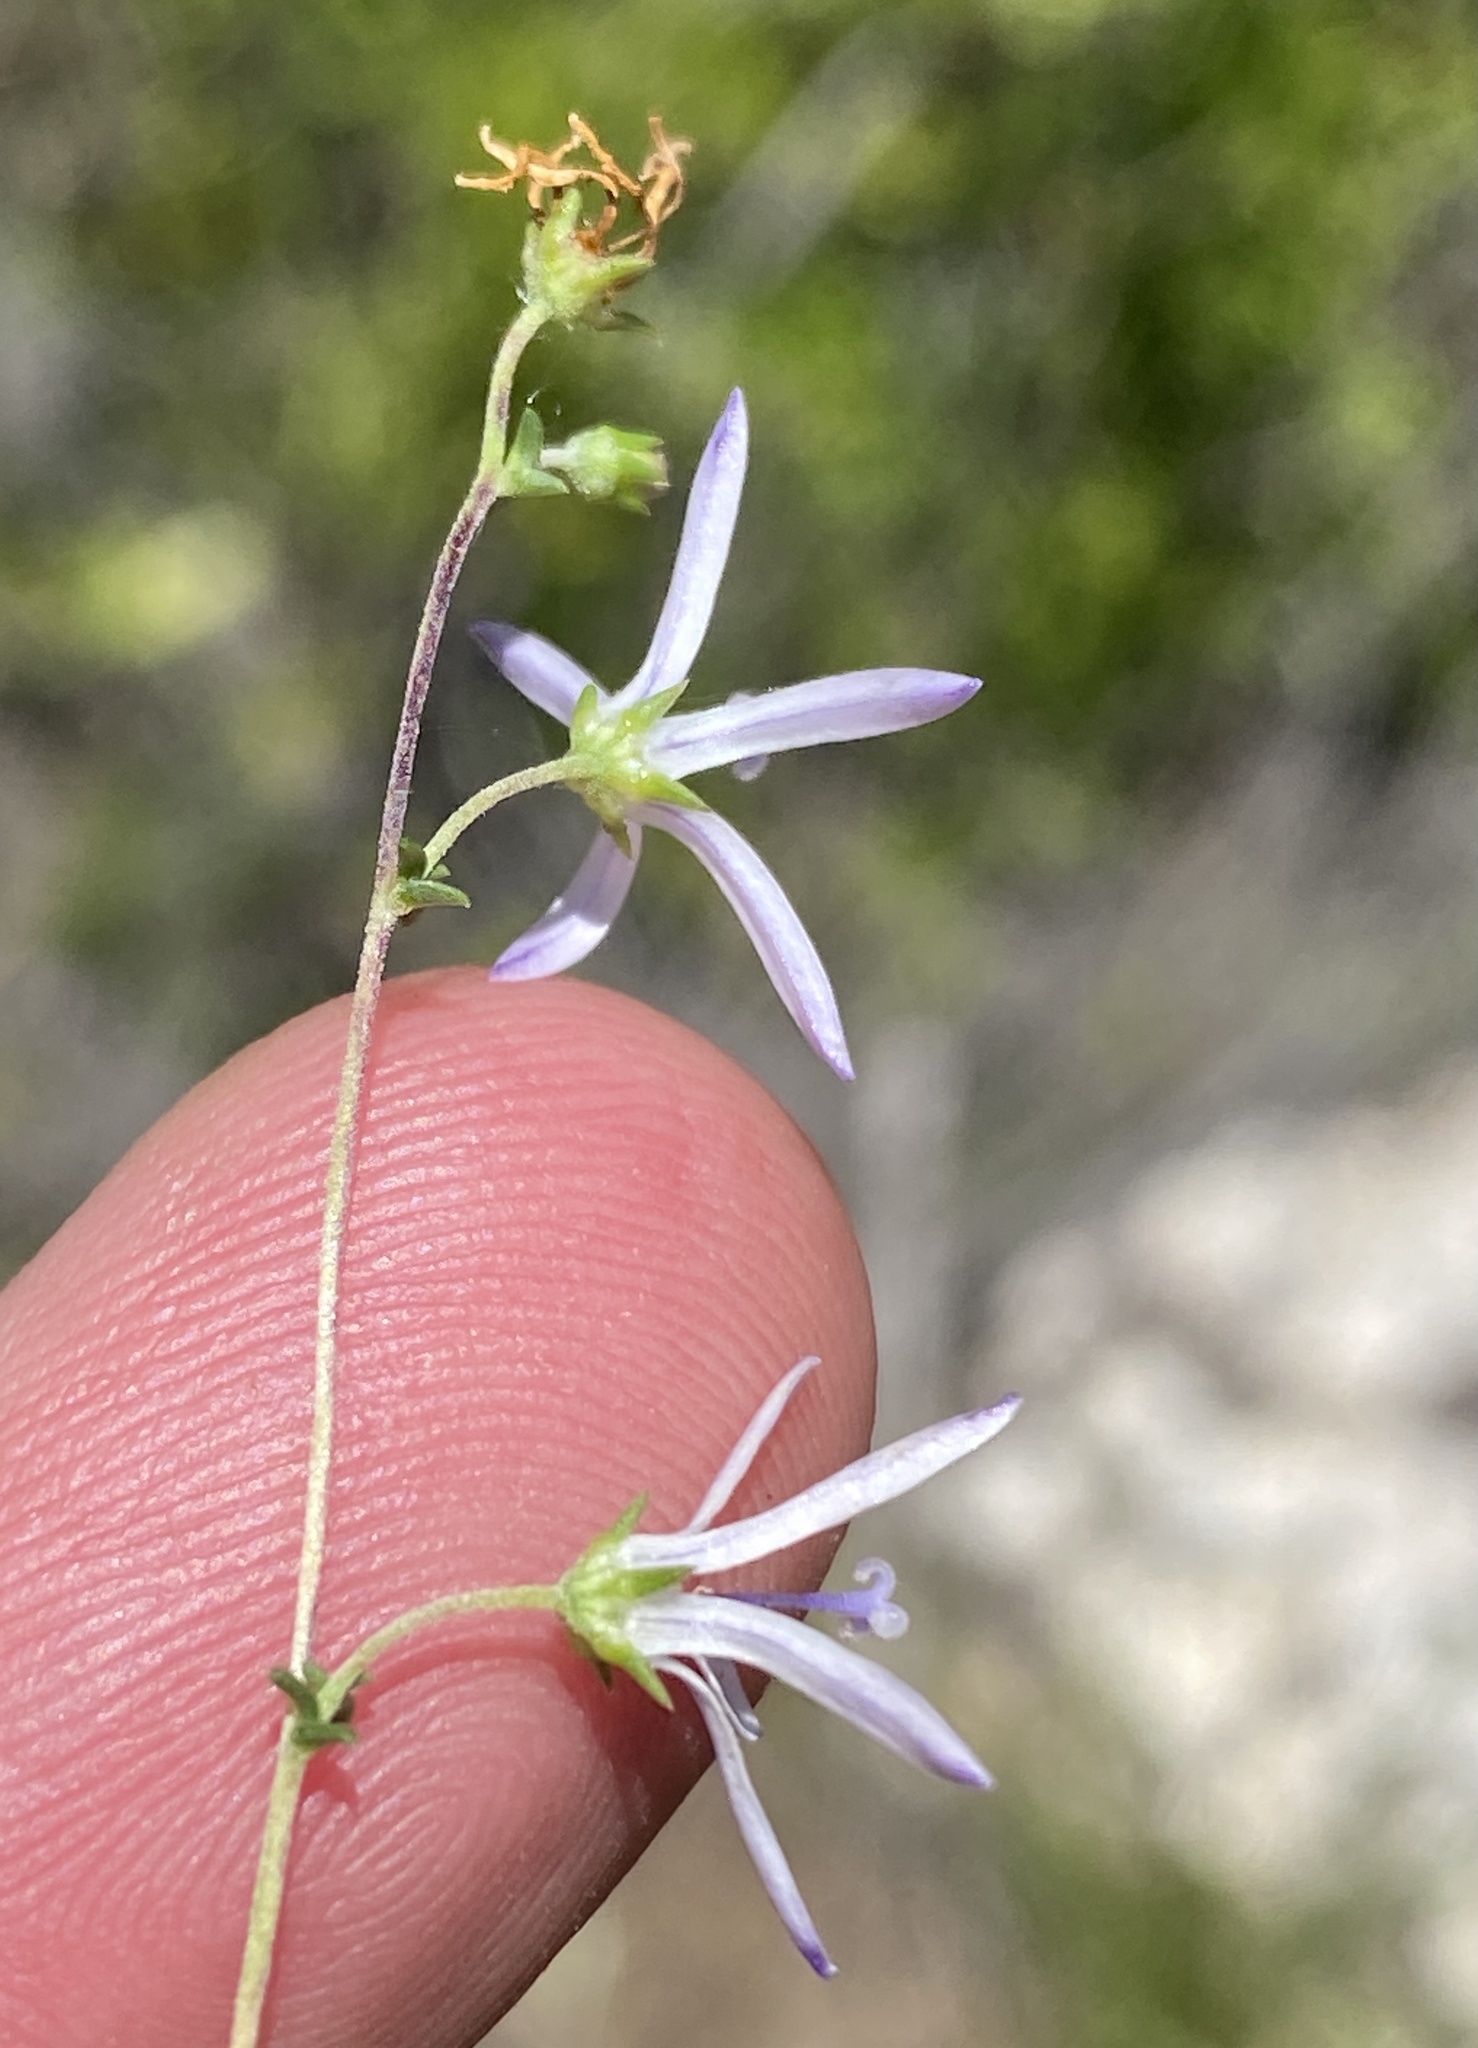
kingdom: Plantae
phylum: Tracheophyta
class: Magnoliopsida
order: Asterales
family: Campanulaceae
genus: Wahlenbergia
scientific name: Wahlenbergia loddigesii
